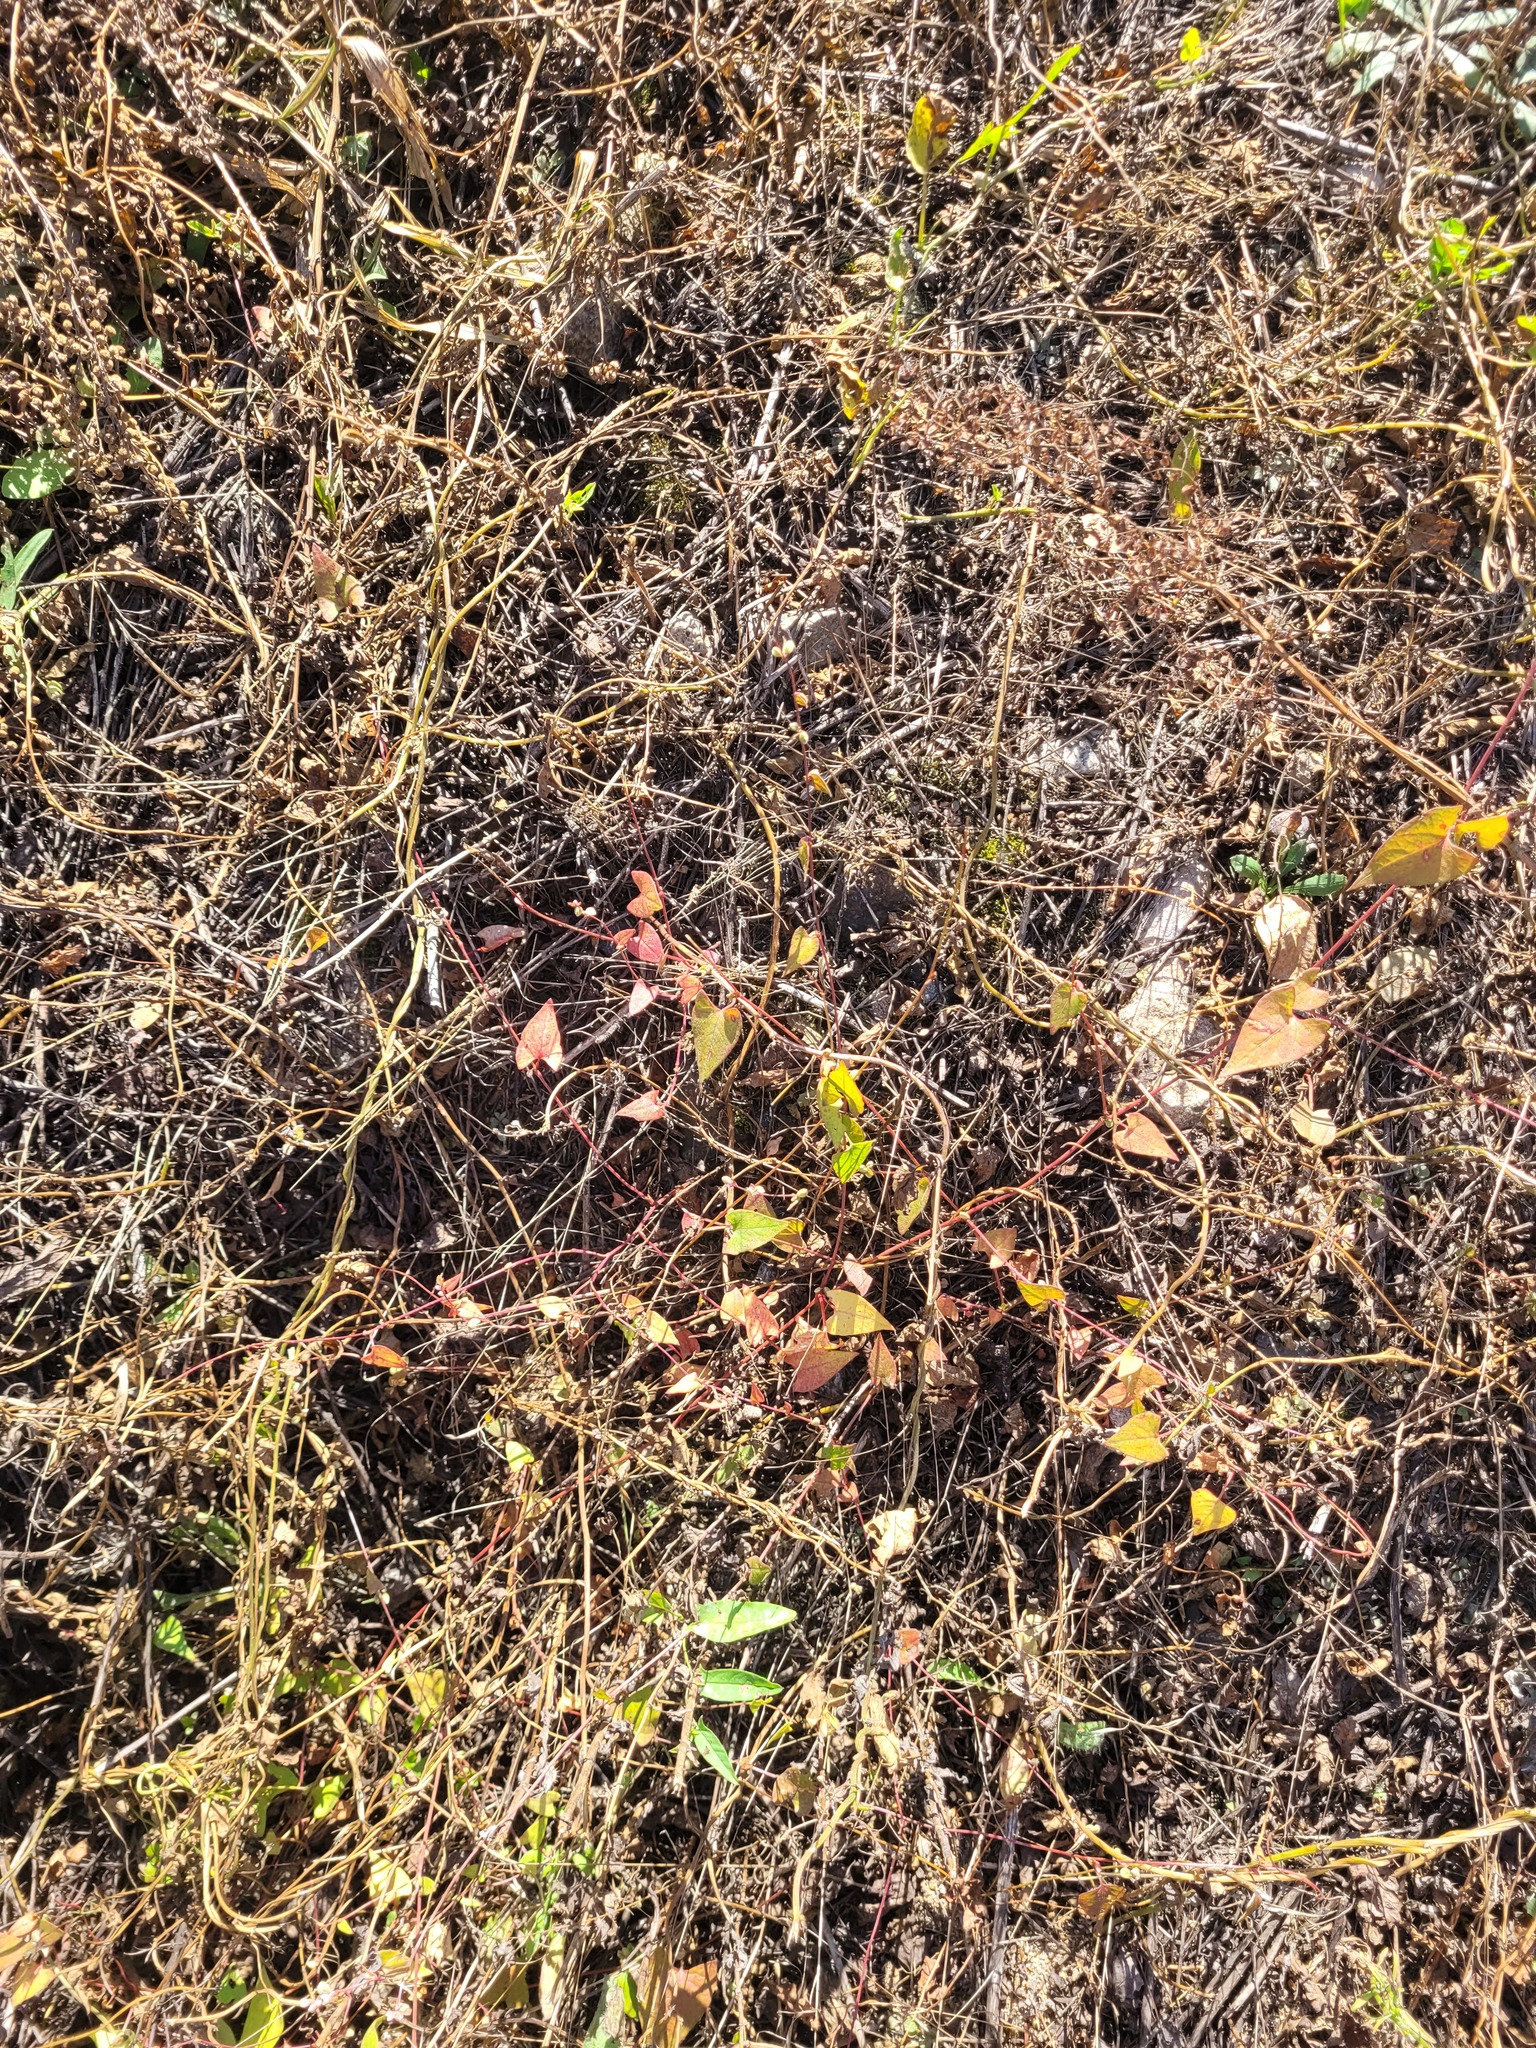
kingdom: Plantae
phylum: Tracheophyta
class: Magnoliopsida
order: Caryophyllales
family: Polygonaceae
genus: Fallopia
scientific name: Fallopia convolvulus
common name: Black bindweed
